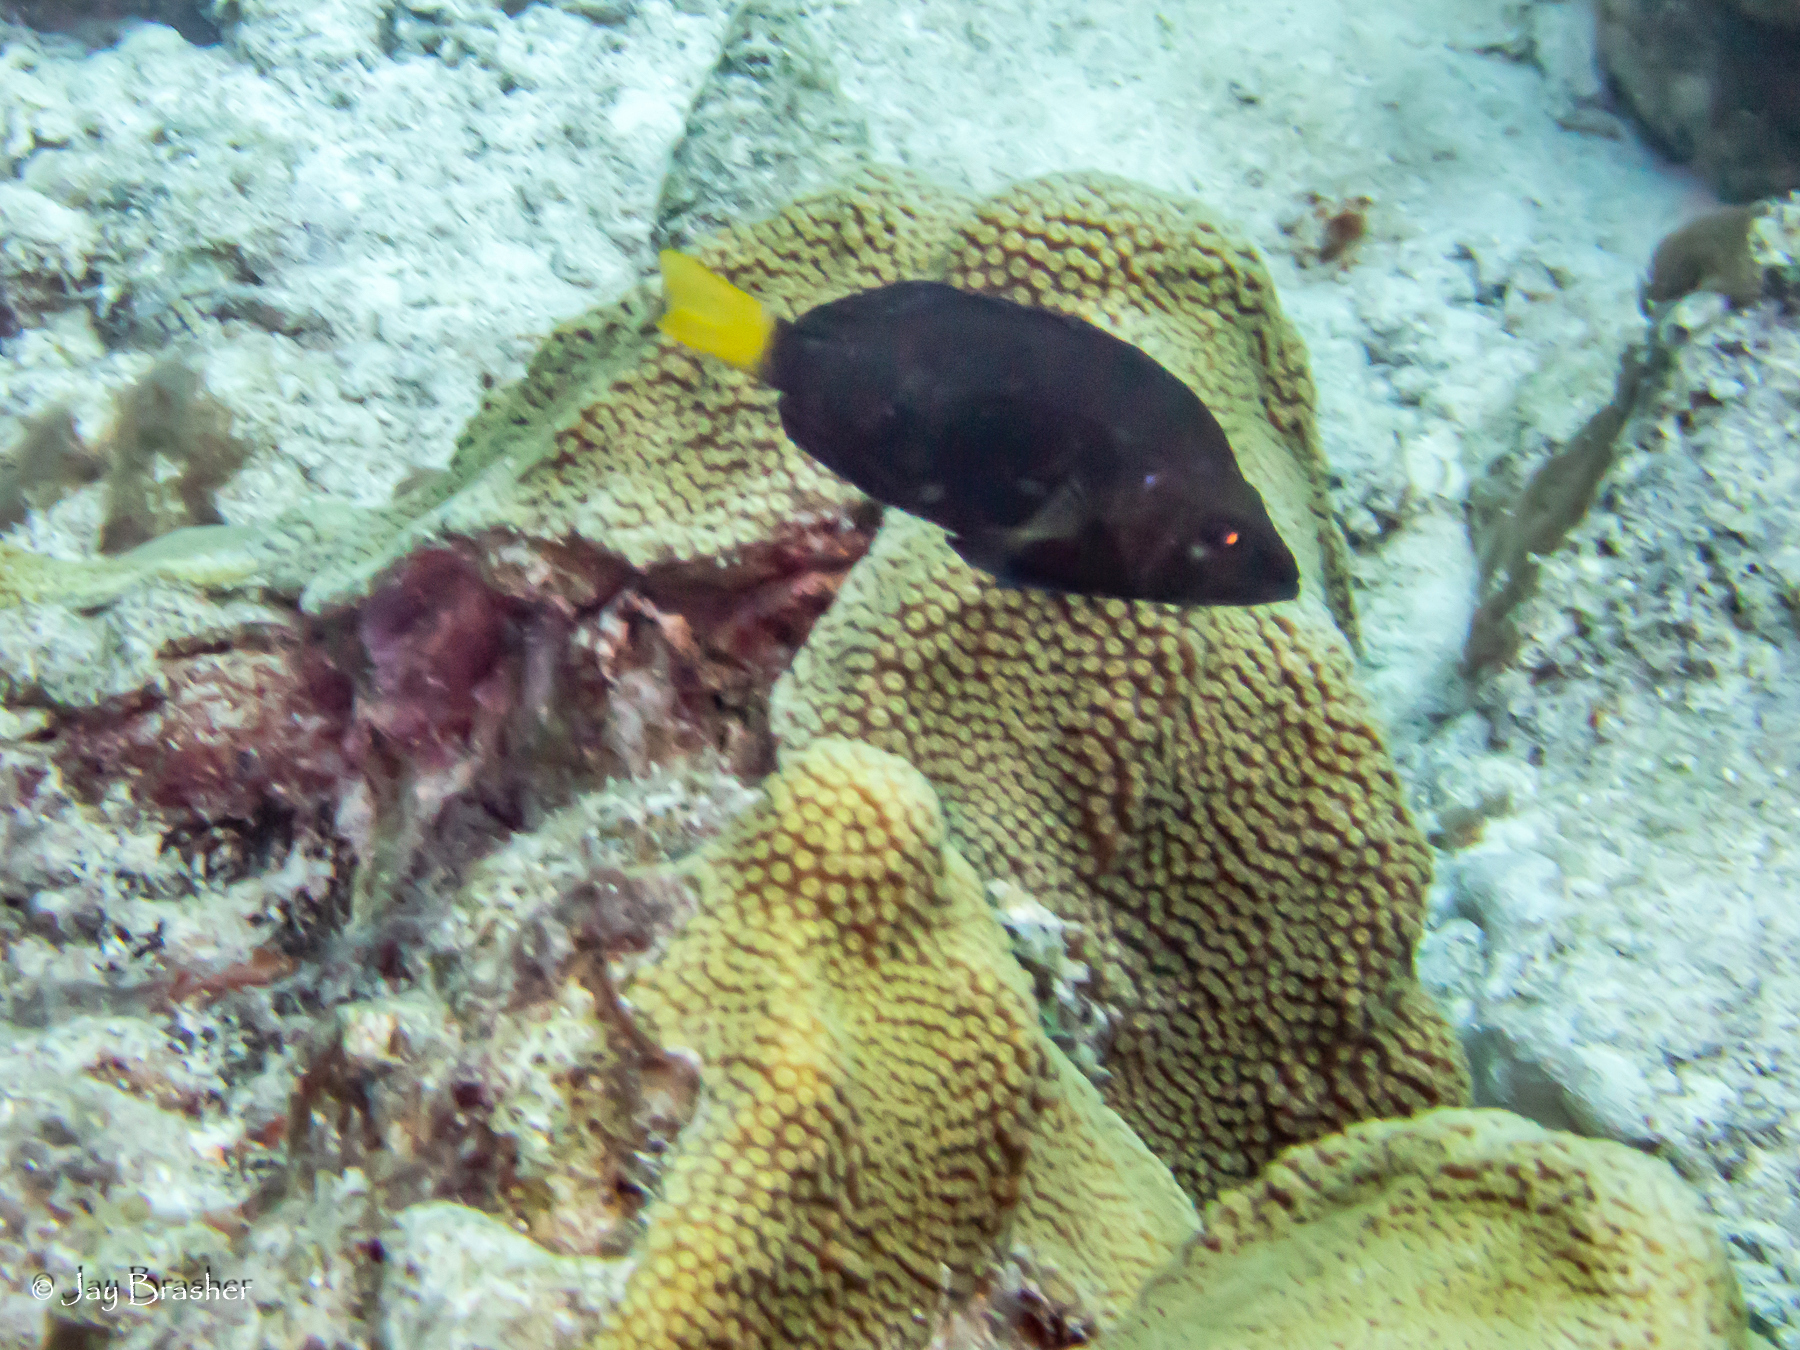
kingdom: Animalia
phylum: Chordata
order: Perciformes
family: Serranidae
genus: Hypoplectrus
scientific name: Hypoplectrus chlorurus
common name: Yellowtail hamlet
